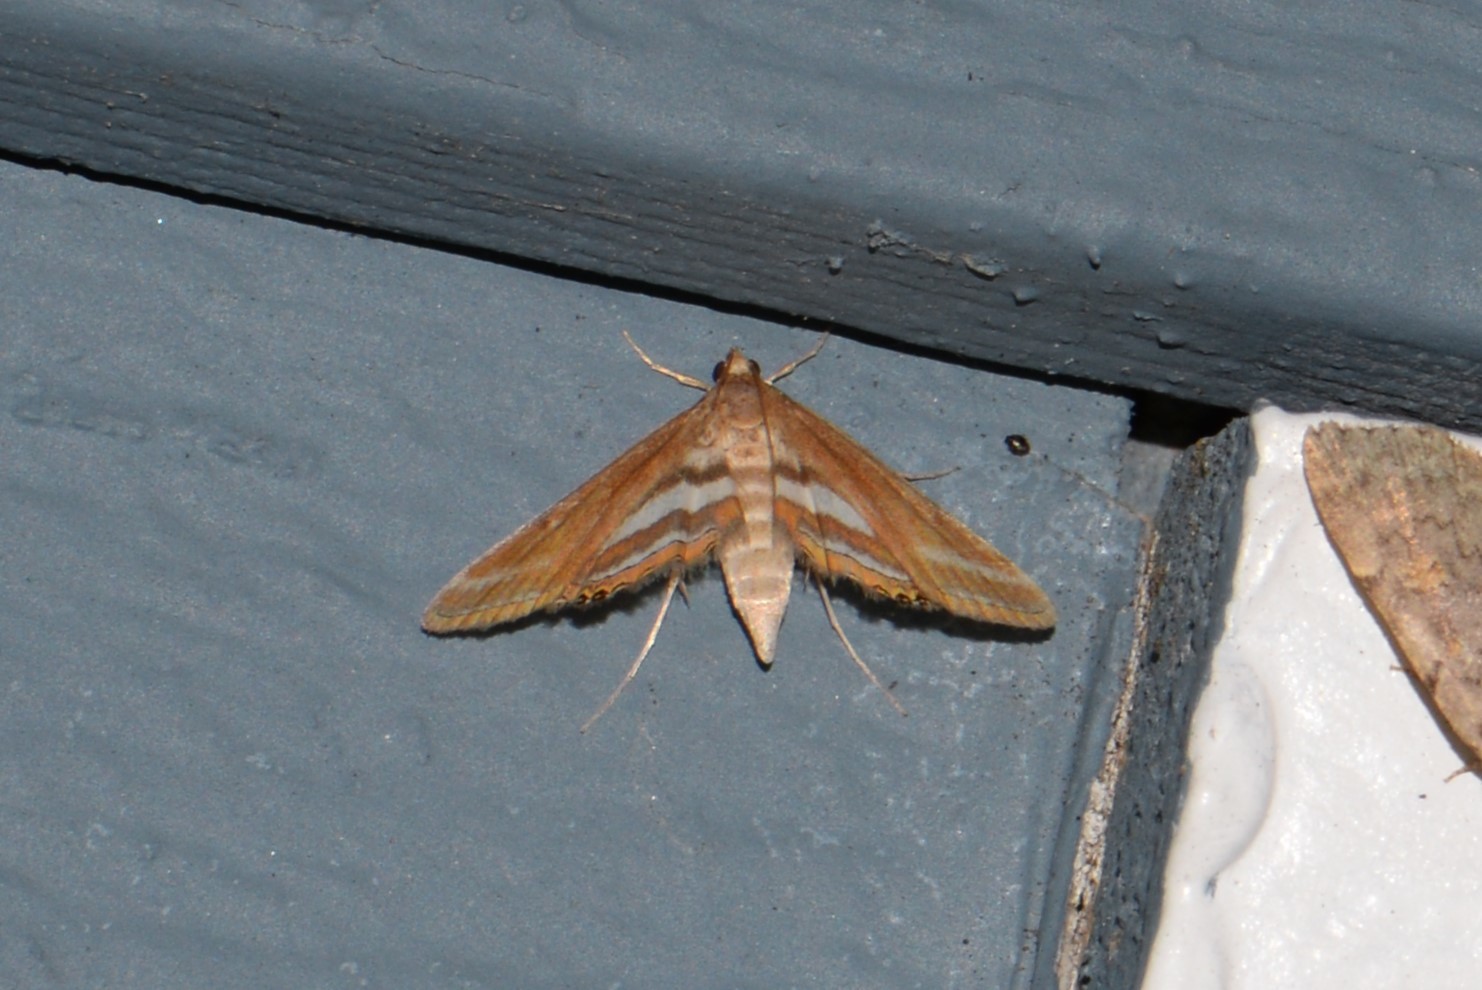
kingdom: Animalia
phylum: Arthropoda
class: Insecta
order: Lepidoptera
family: Crambidae
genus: Parapoynx
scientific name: Parapoynx seminealis
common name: Floating-heart waterlily leafcutter
